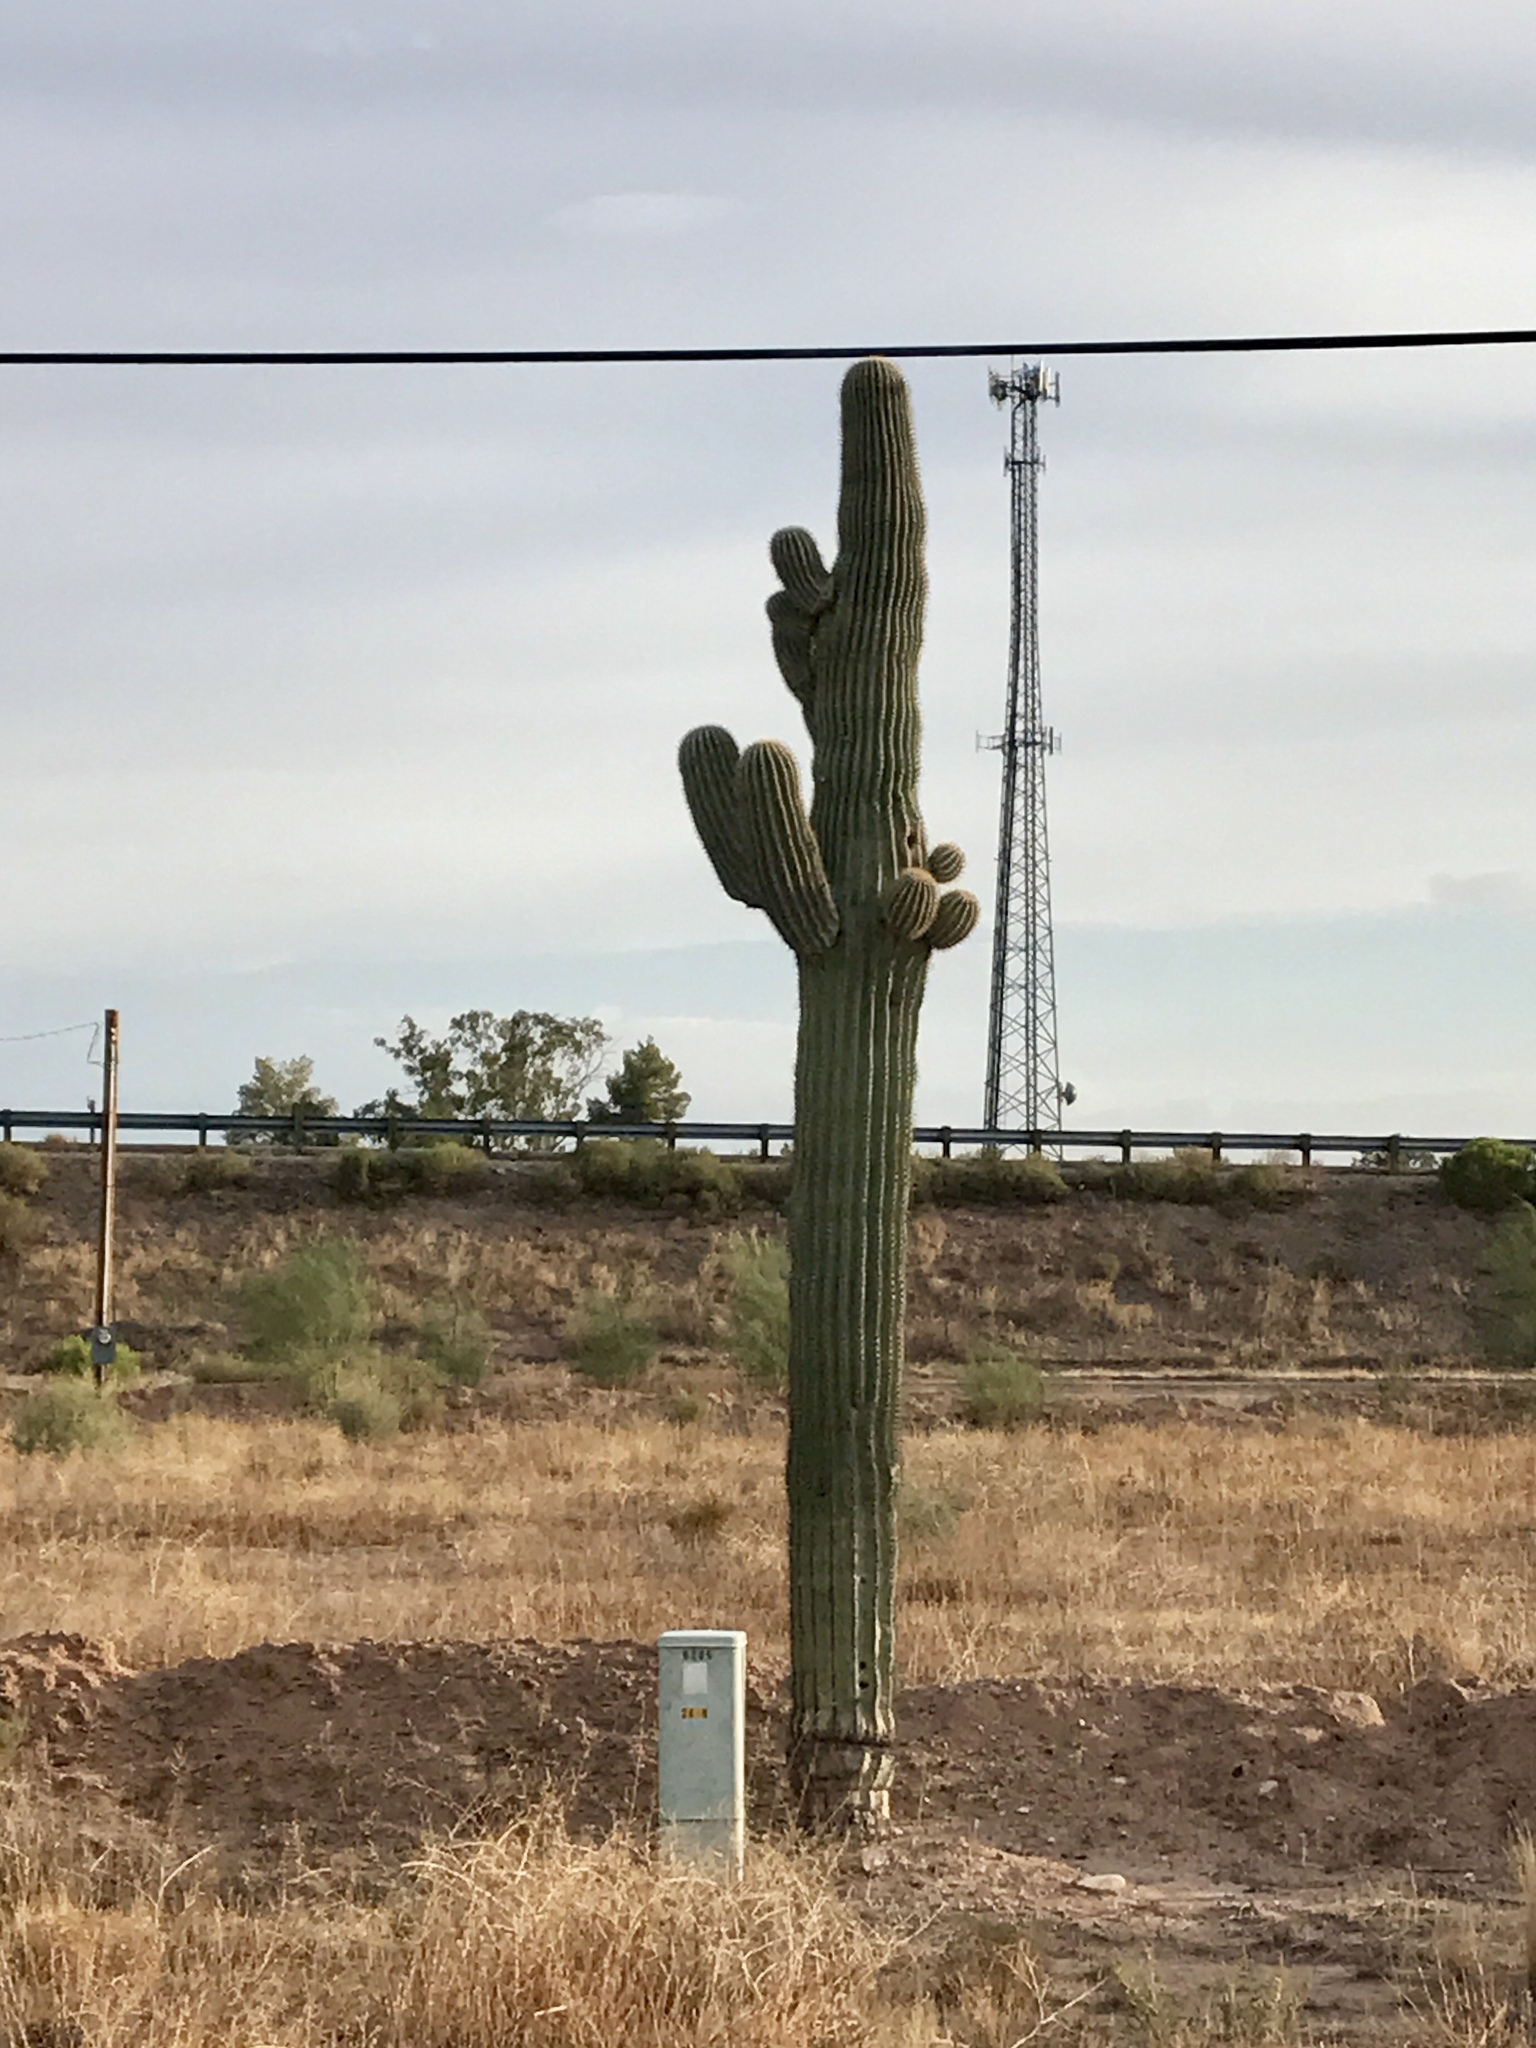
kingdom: Plantae
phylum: Tracheophyta
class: Magnoliopsida
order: Caryophyllales
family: Cactaceae
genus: Carnegiea
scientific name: Carnegiea gigantea
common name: Saguaro
